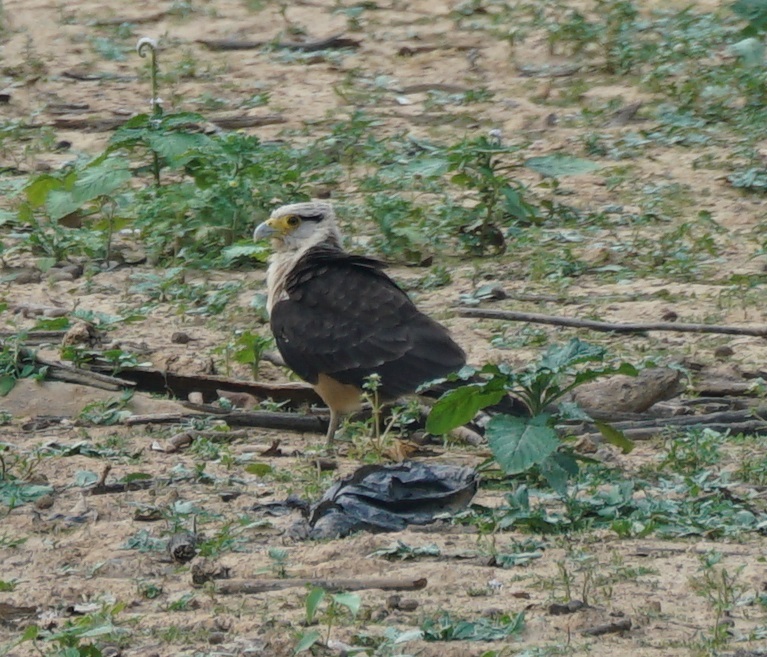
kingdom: Animalia
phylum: Chordata
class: Aves
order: Falconiformes
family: Falconidae
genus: Daptrius
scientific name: Daptrius
